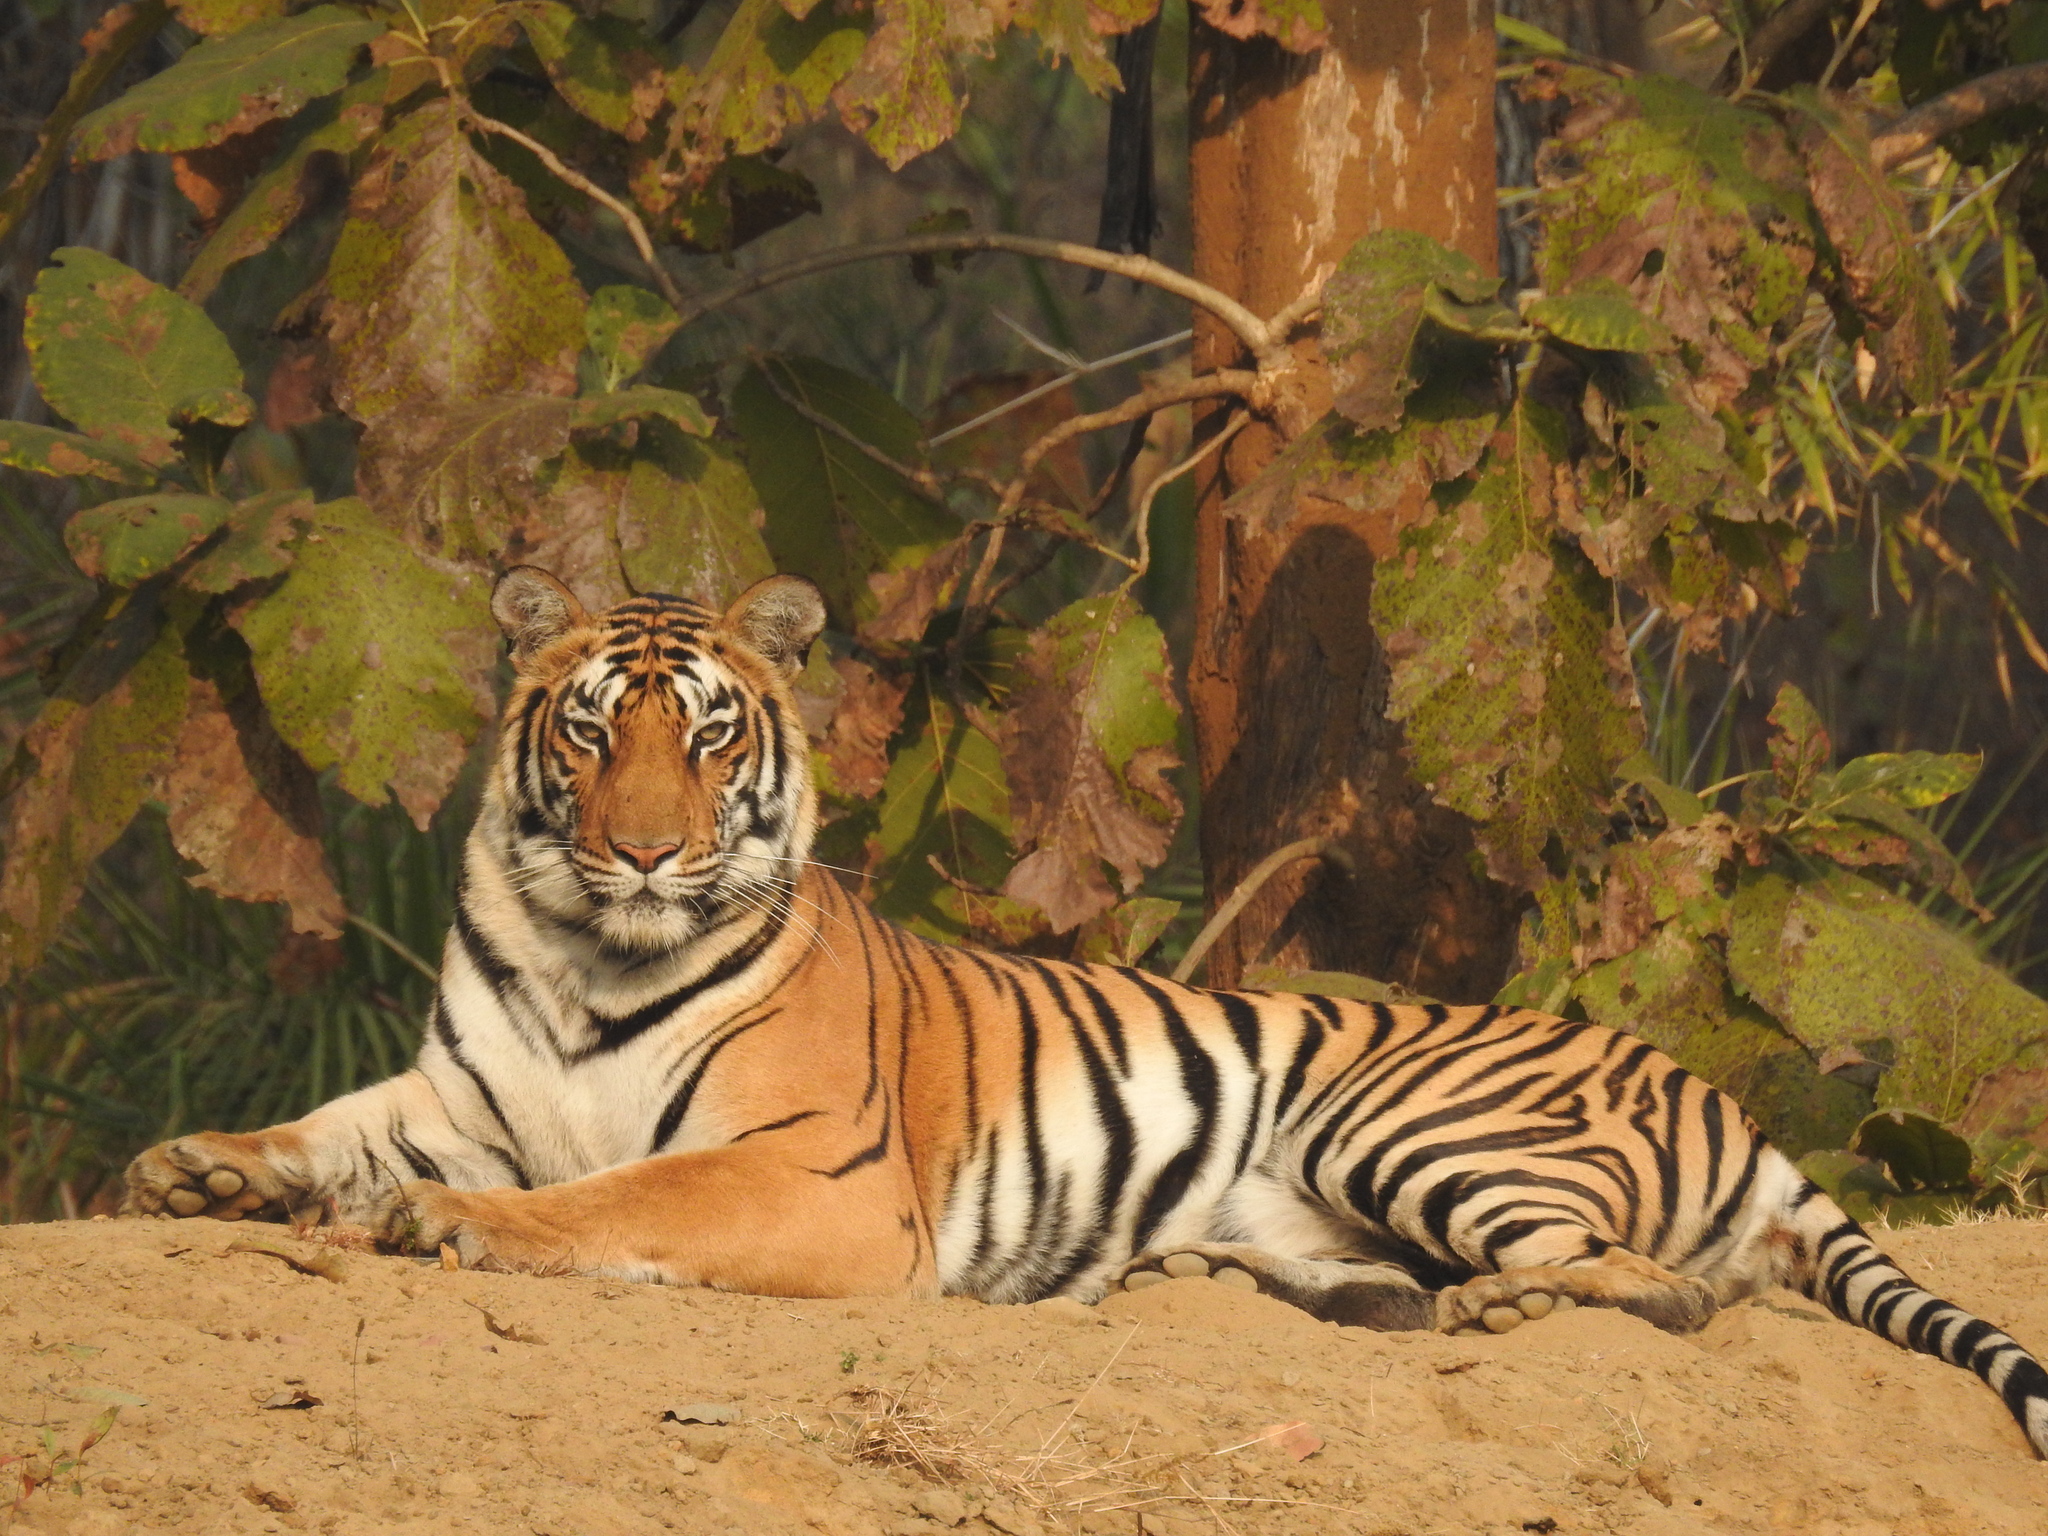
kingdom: Animalia
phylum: Chordata
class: Mammalia
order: Carnivora
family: Felidae
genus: Panthera
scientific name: Panthera tigris
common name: Tiger
